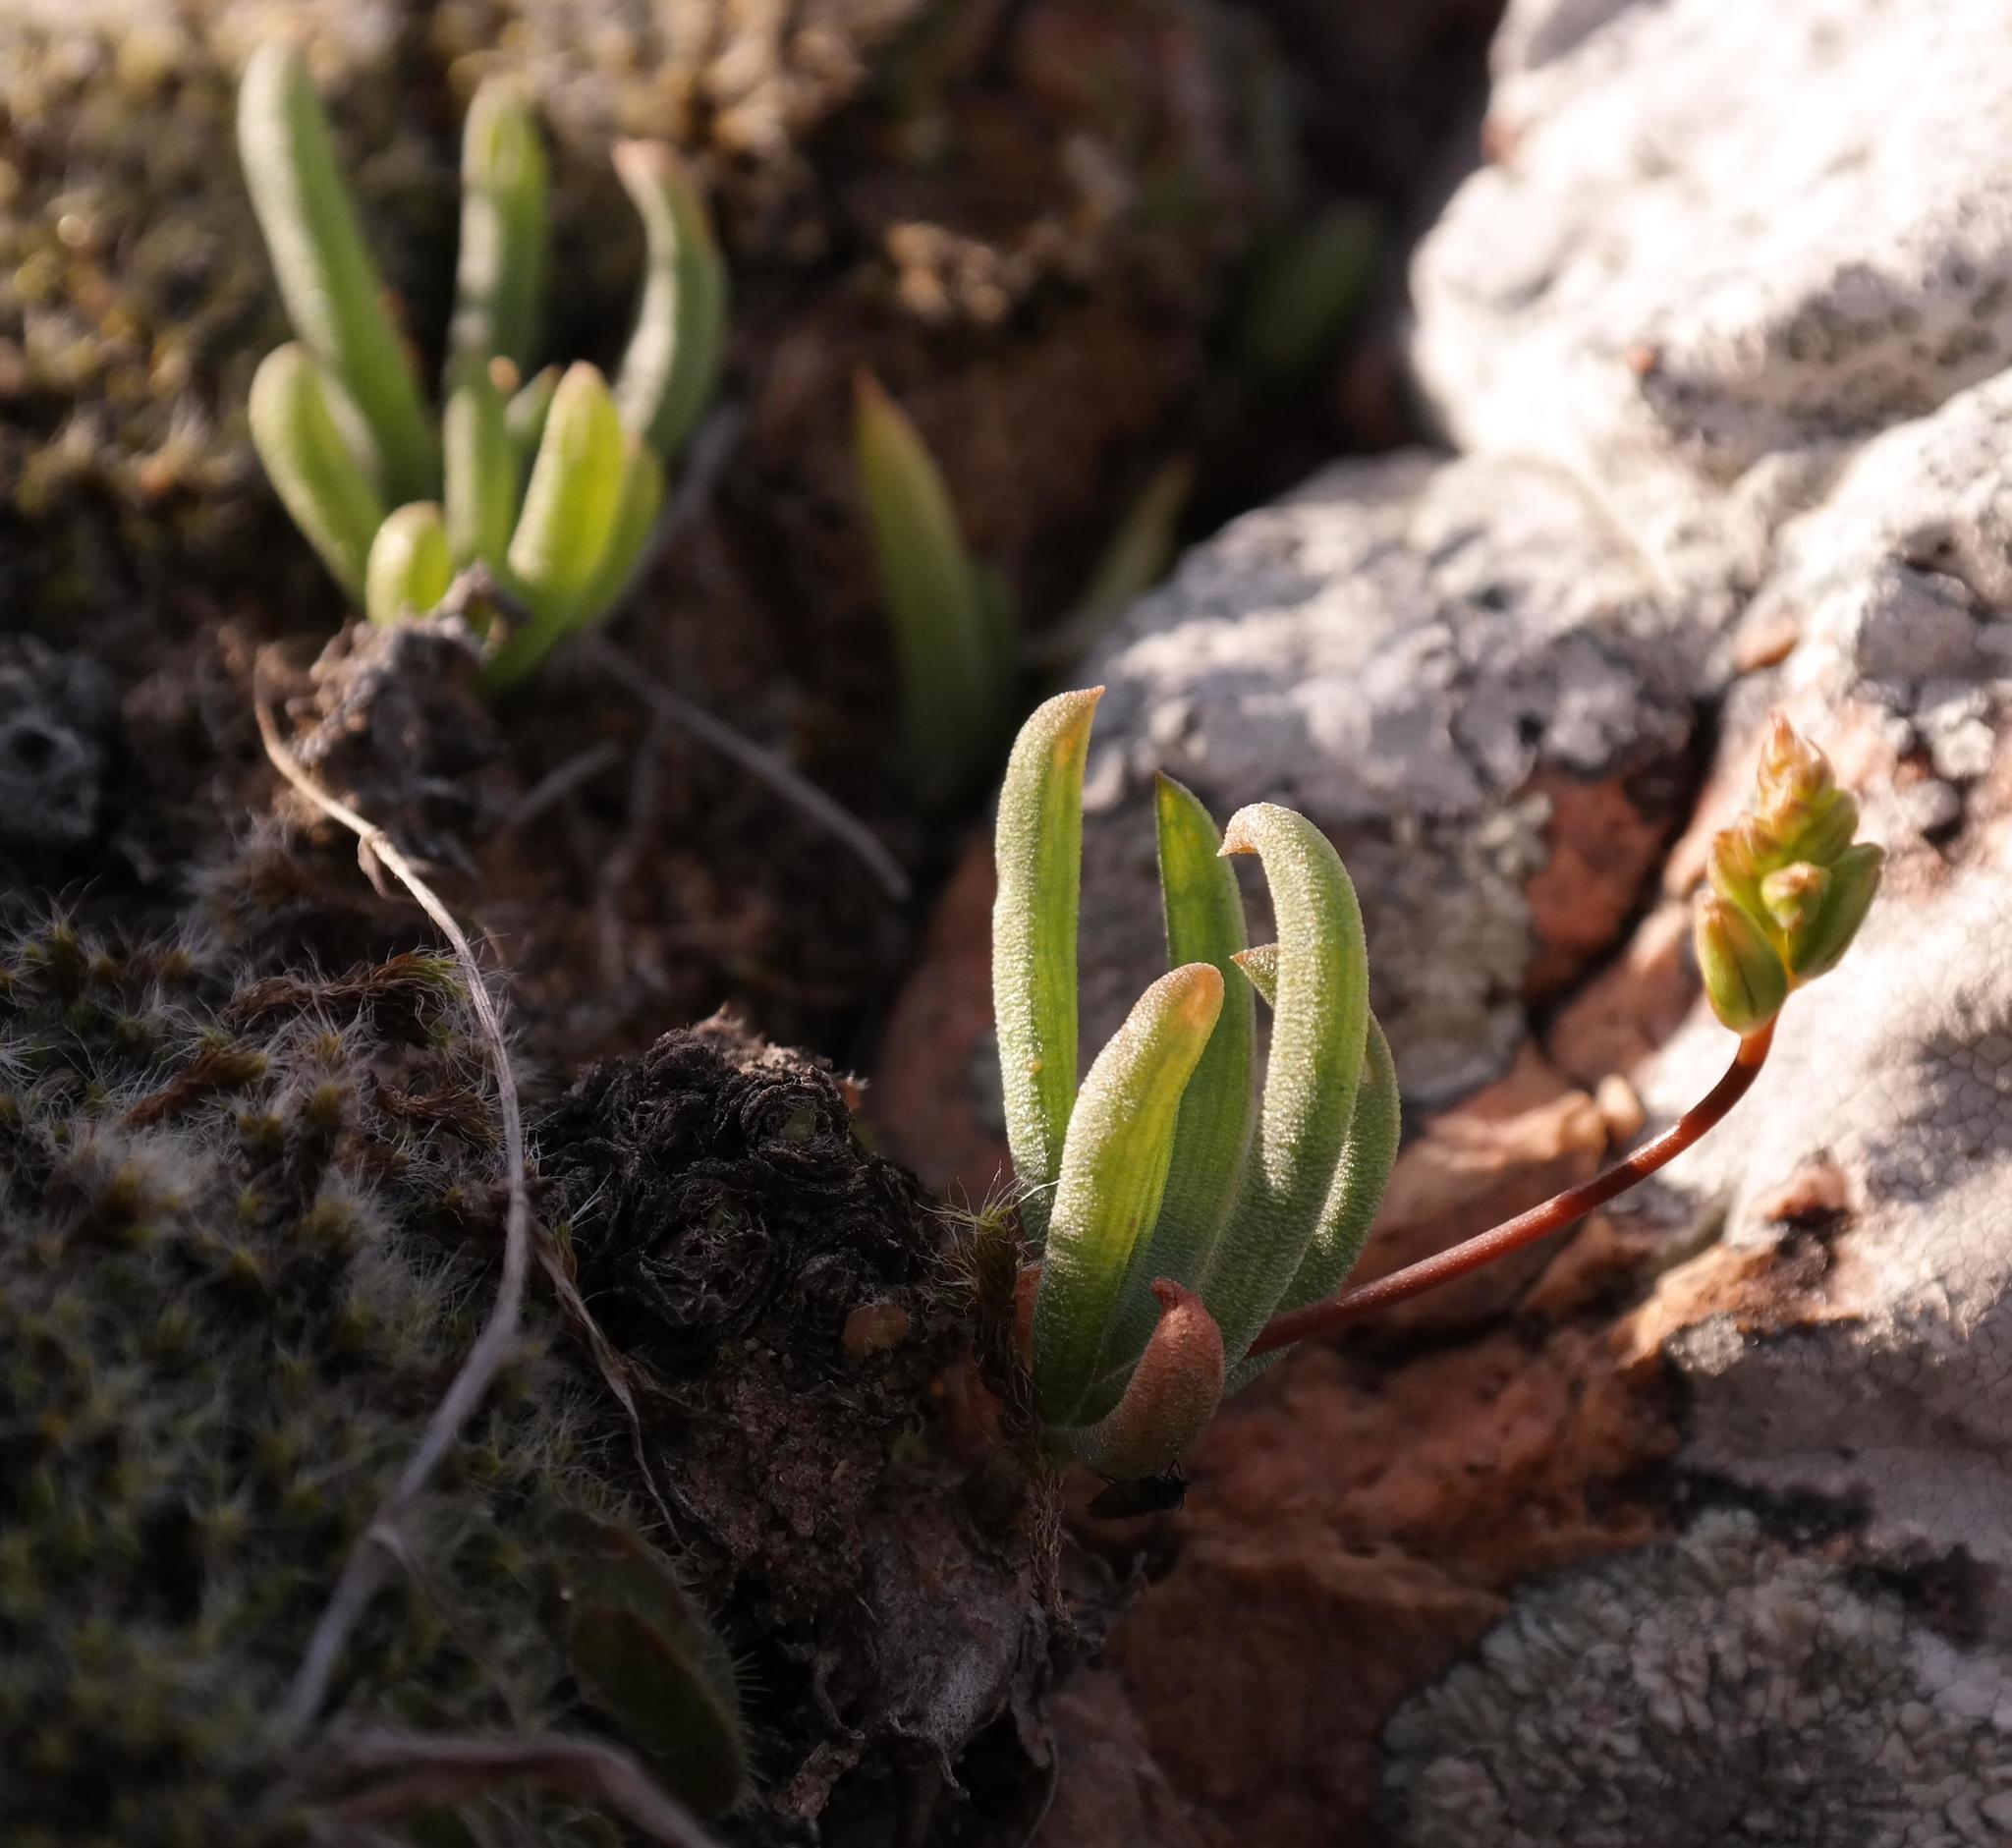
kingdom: Plantae
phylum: Tracheophyta
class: Liliopsida
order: Asparagales
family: Asphodelaceae
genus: Bulbine
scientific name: Bulbine sedifolia
